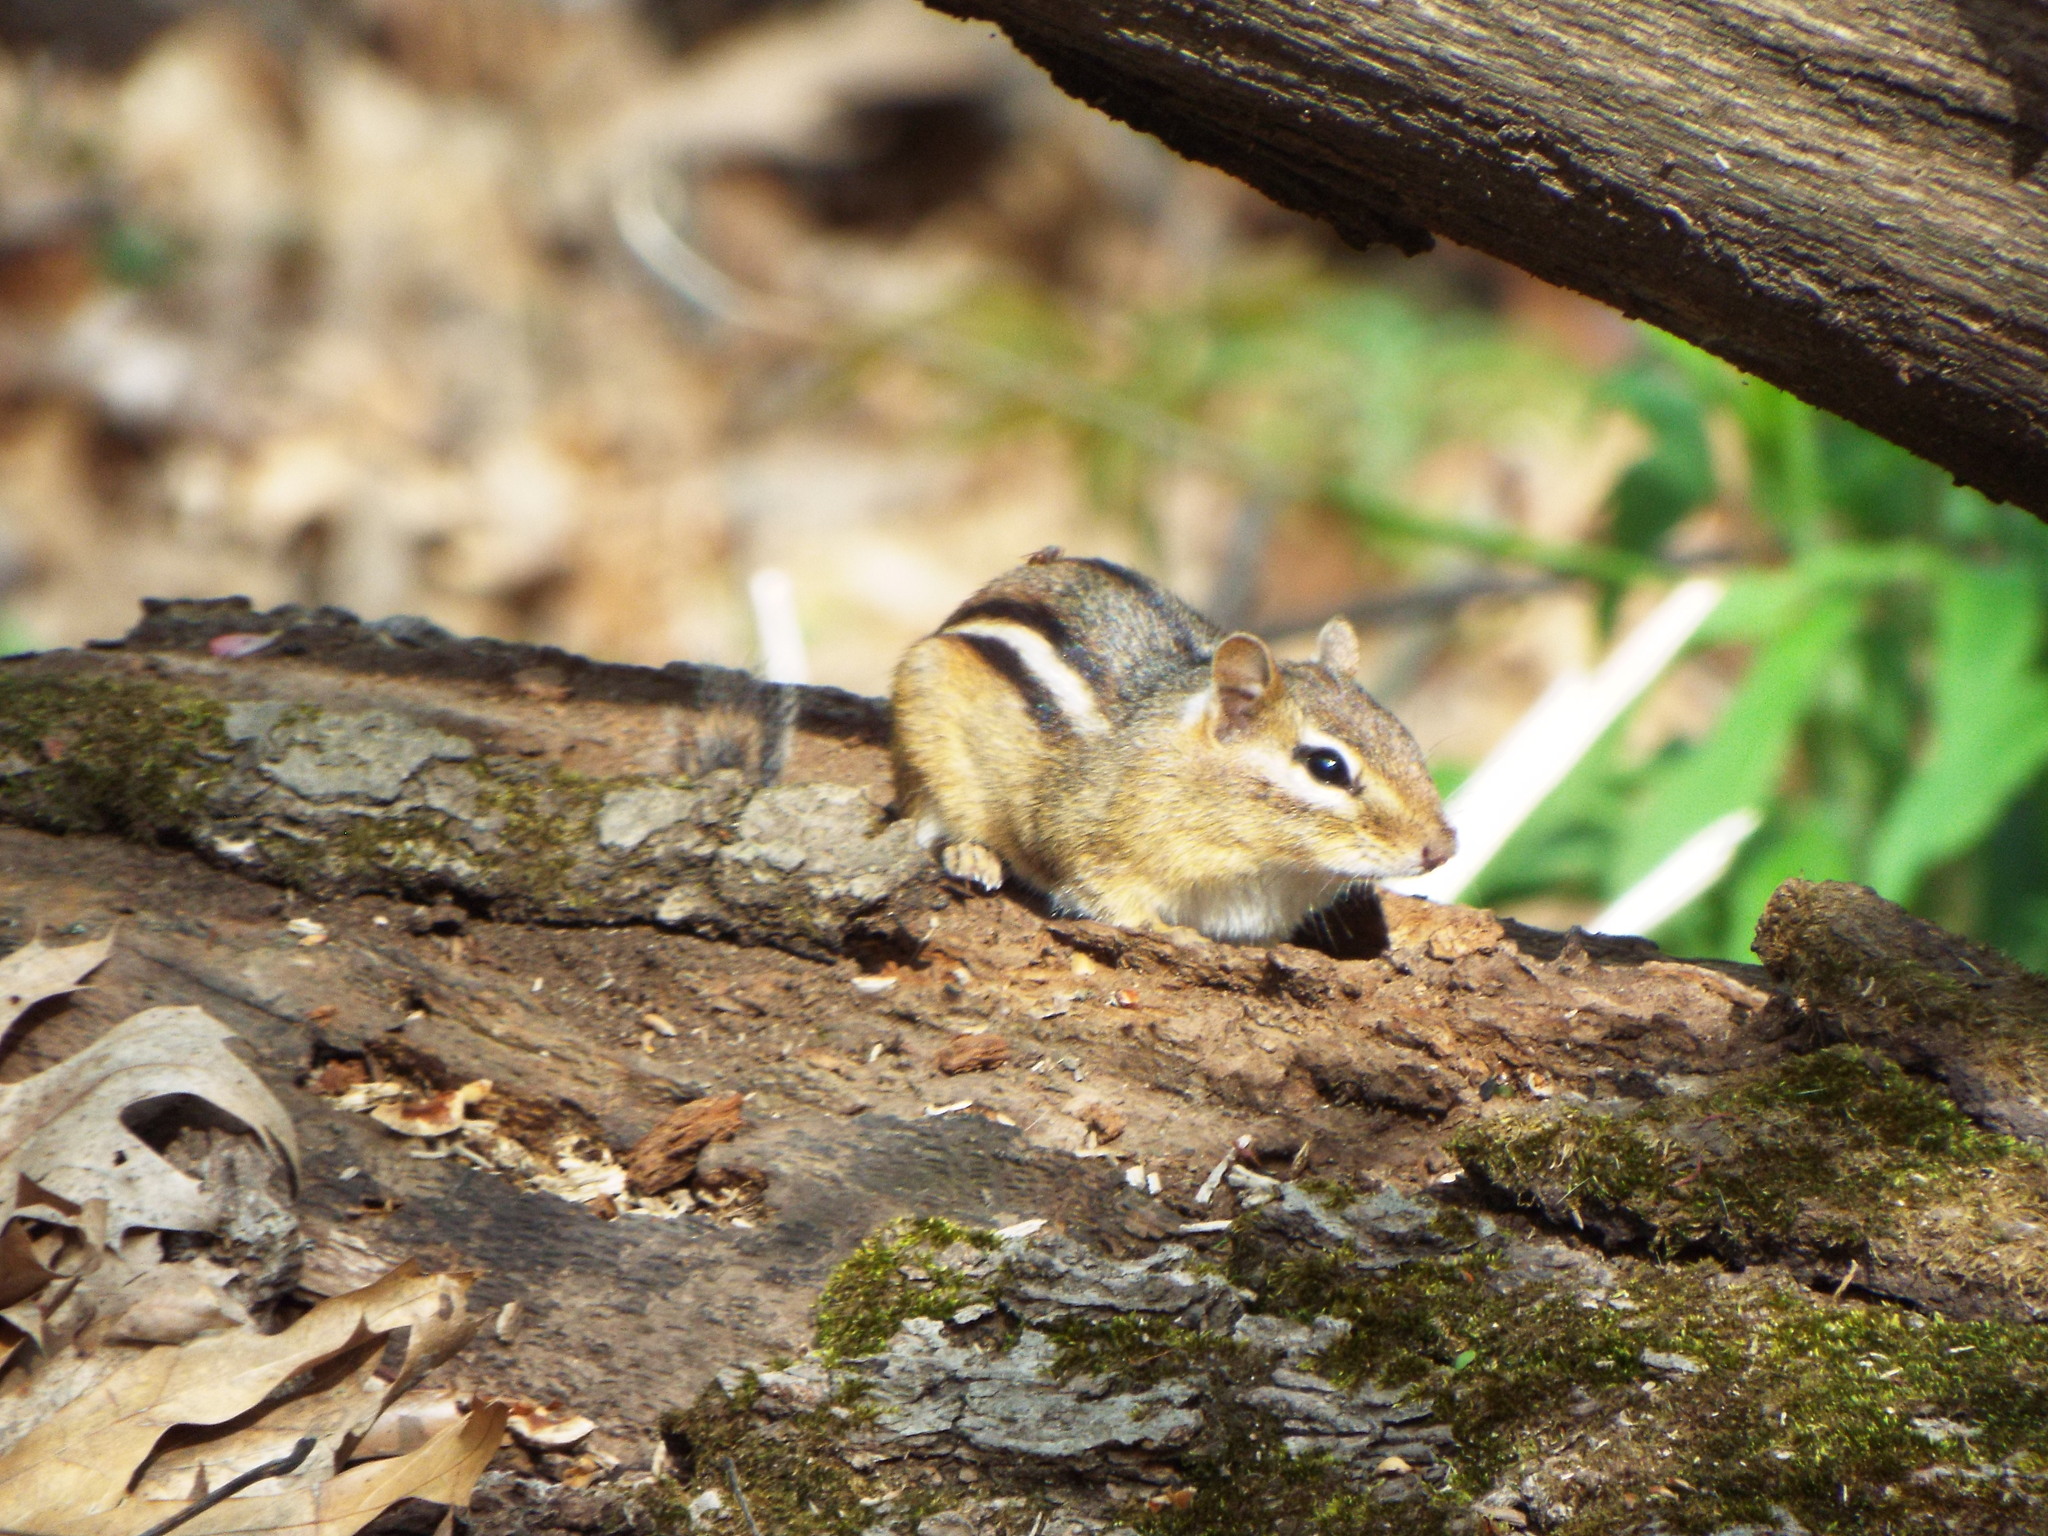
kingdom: Animalia
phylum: Chordata
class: Mammalia
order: Rodentia
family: Sciuridae
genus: Tamias
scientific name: Tamias striatus
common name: Eastern chipmunk
